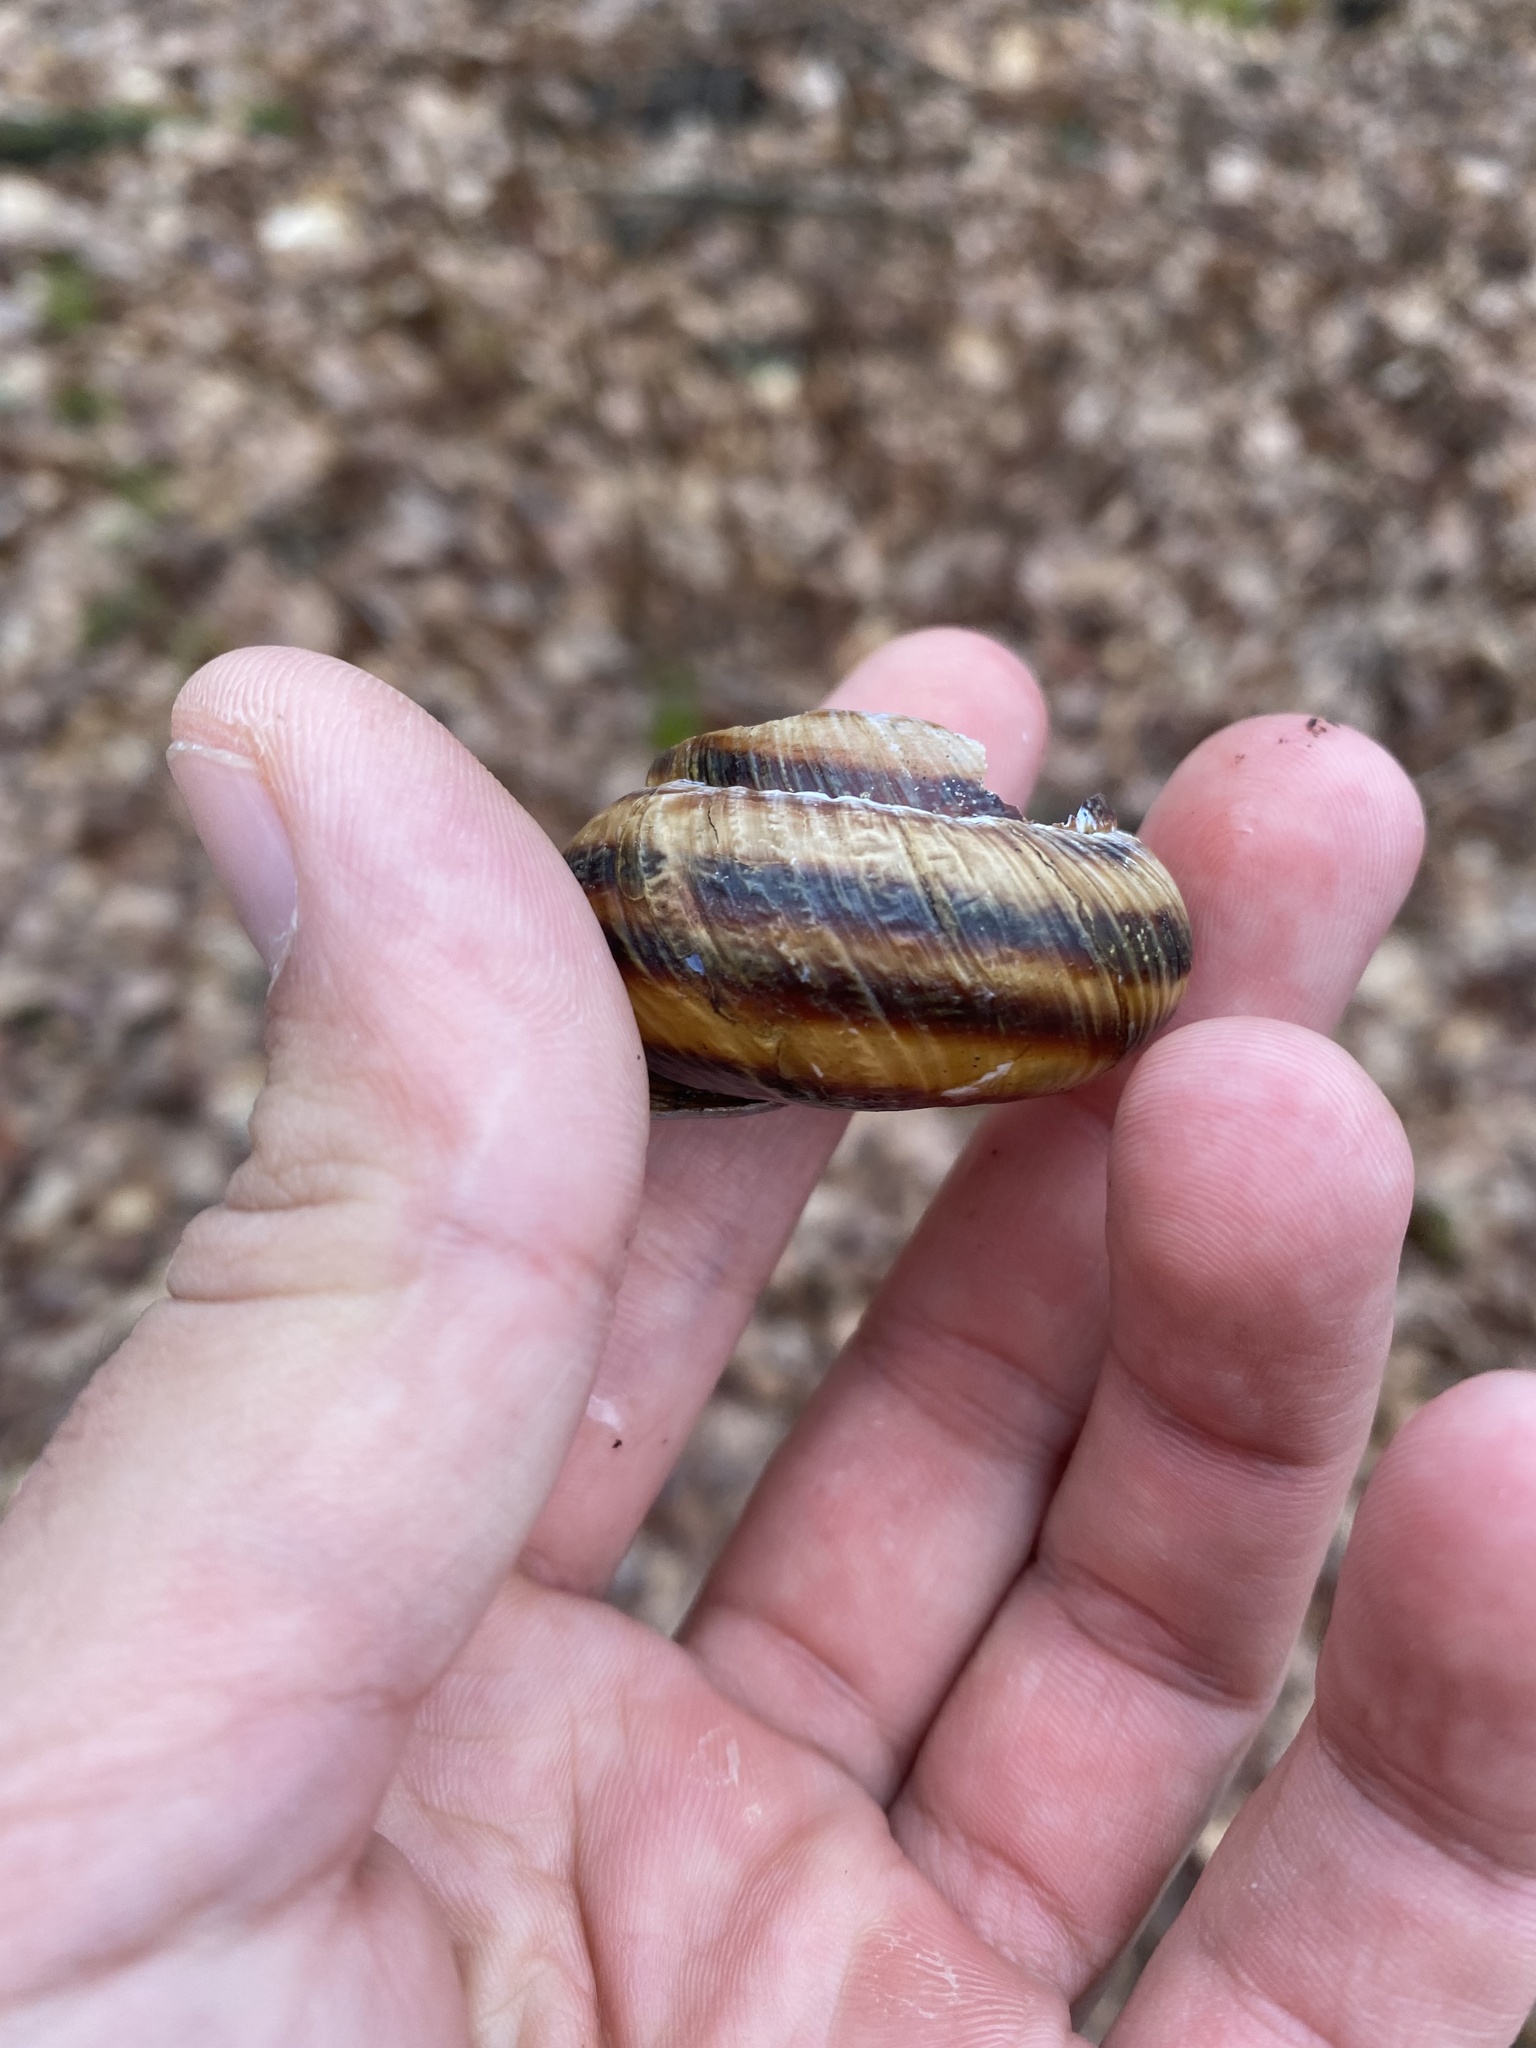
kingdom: Animalia
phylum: Mollusca
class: Gastropoda
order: Stylommatophora
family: Helicidae
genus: Caucasotachea
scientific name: Caucasotachea atrolabiata
